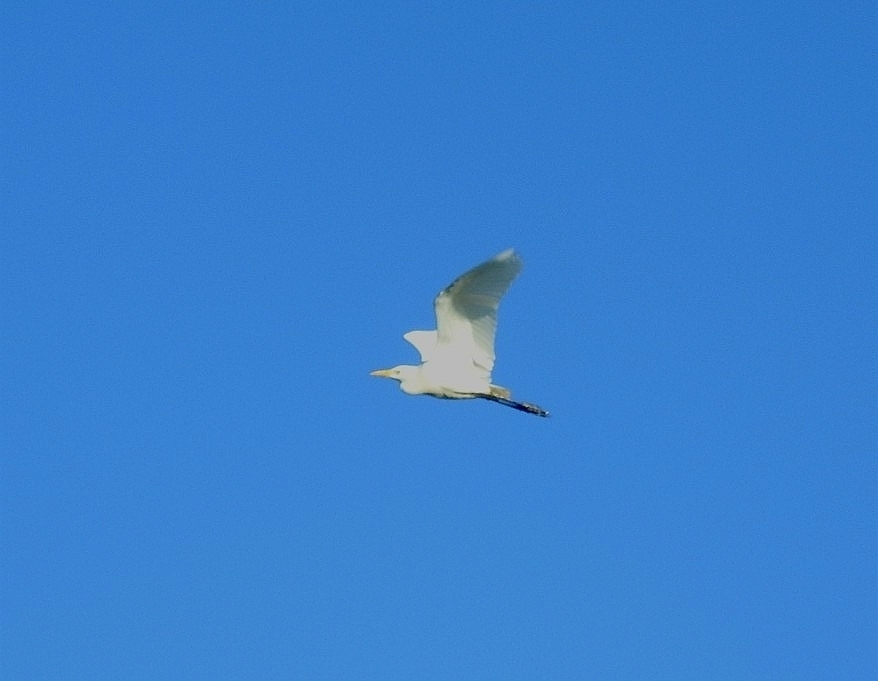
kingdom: Animalia
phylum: Chordata
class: Aves
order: Pelecaniformes
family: Ardeidae
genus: Bubulcus
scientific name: Bubulcus ibis
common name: Cattle egret
